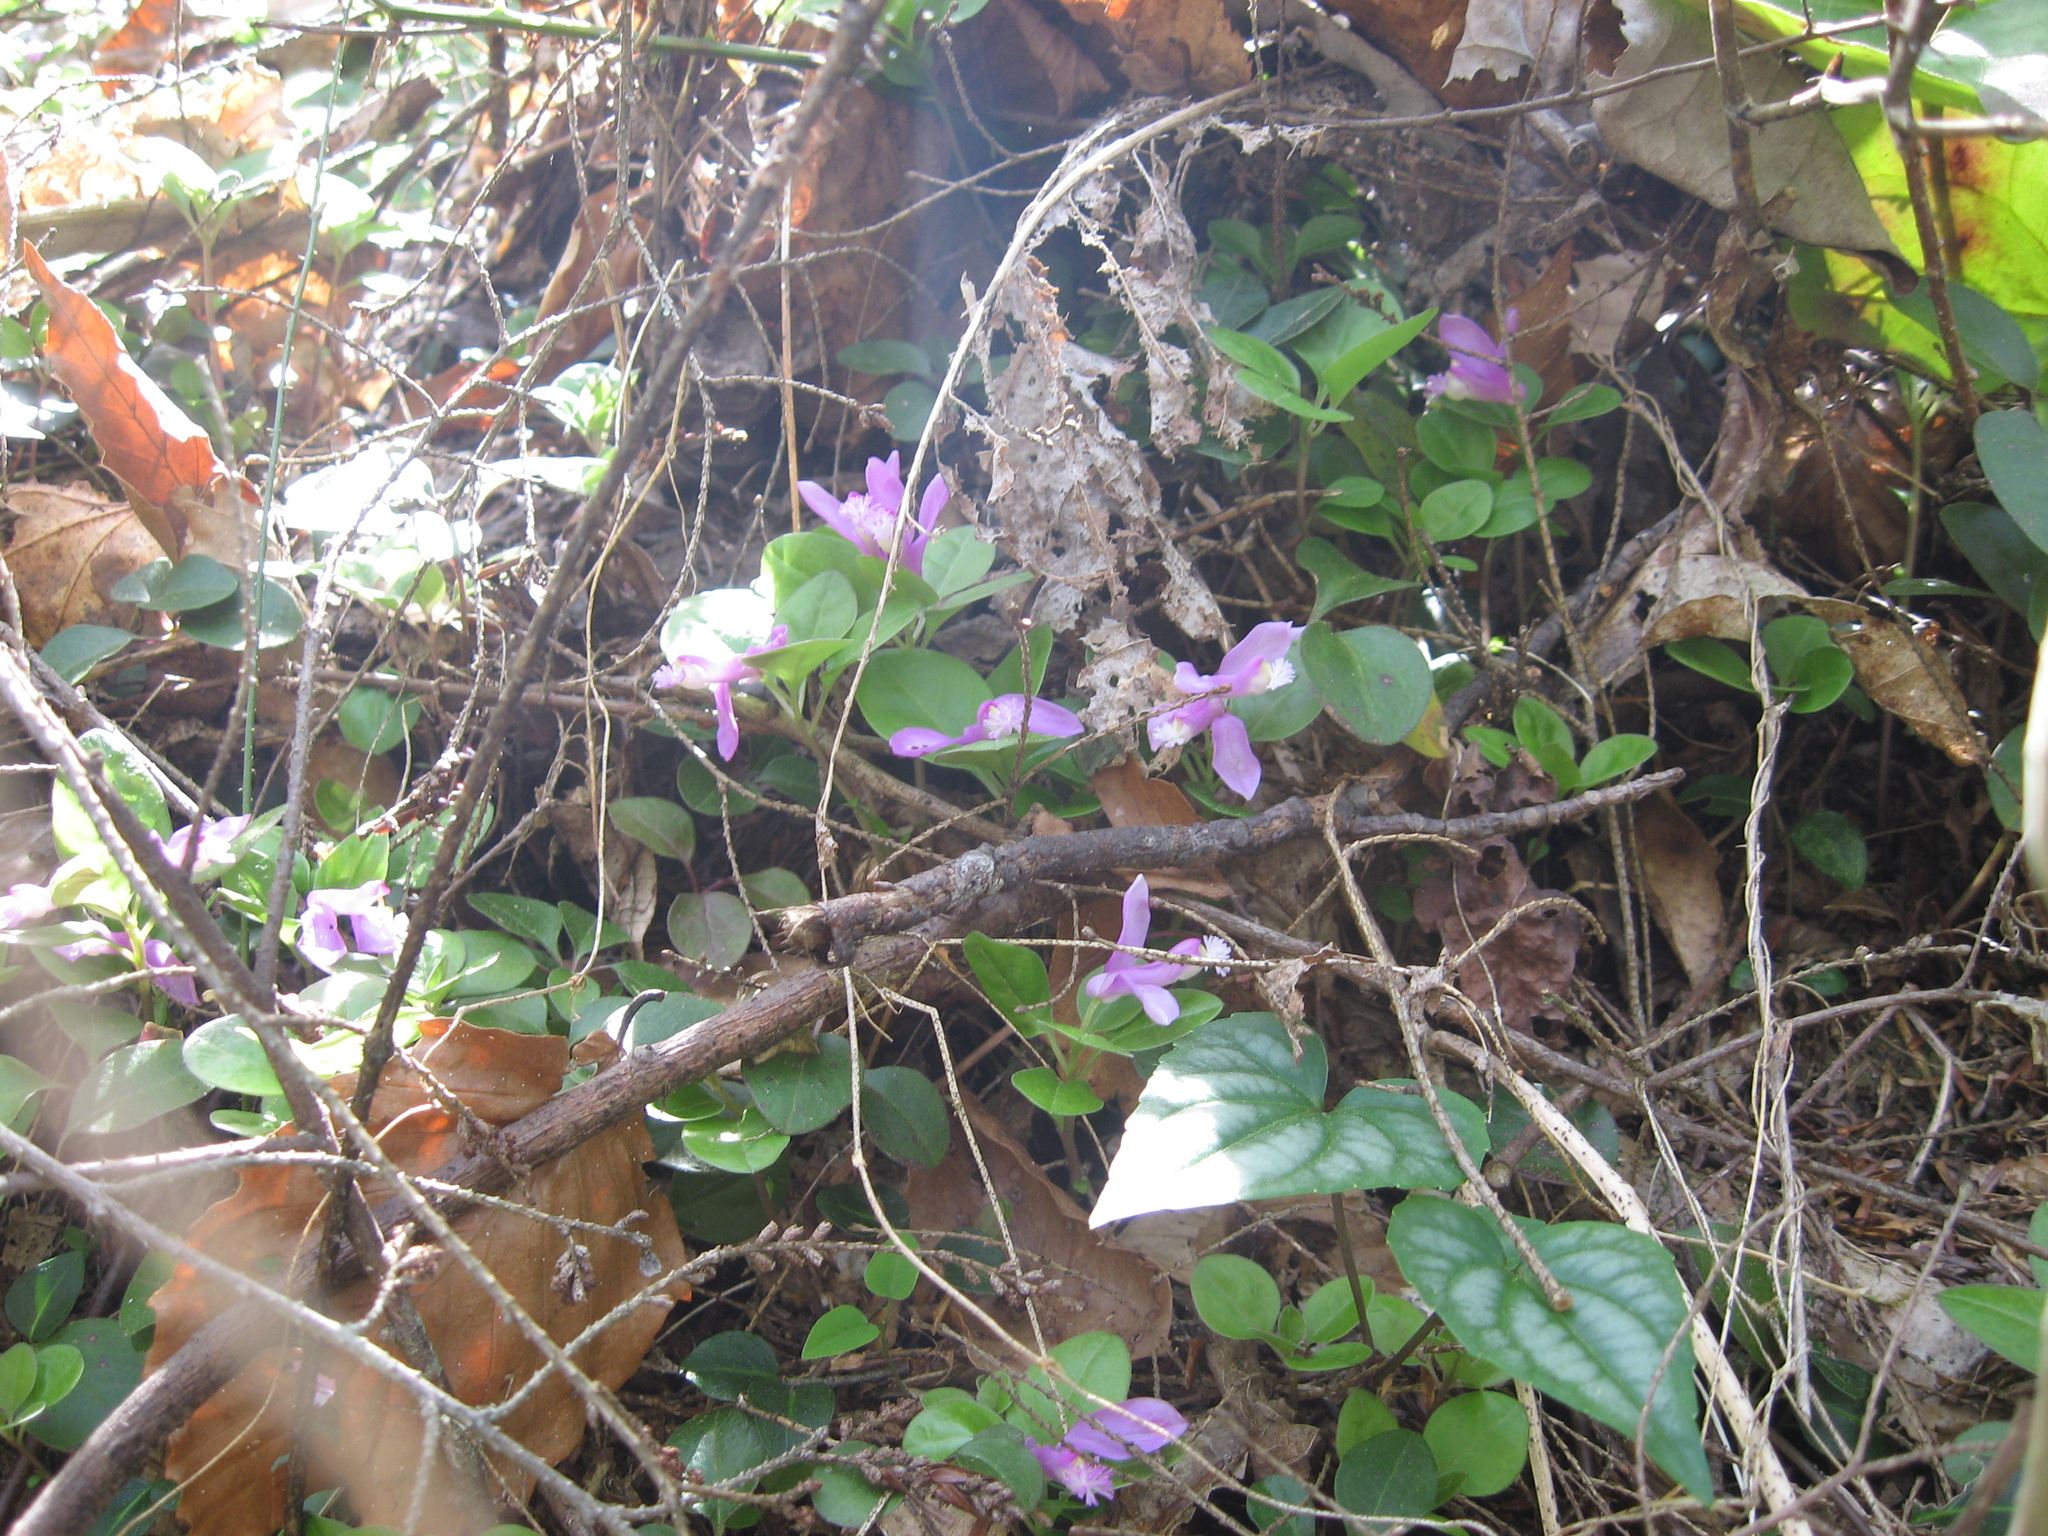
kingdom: Plantae
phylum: Tracheophyta
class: Magnoliopsida
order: Fabales
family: Polygalaceae
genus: Polygaloides
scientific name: Polygaloides paucifolia
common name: Bird-on-the-wing
